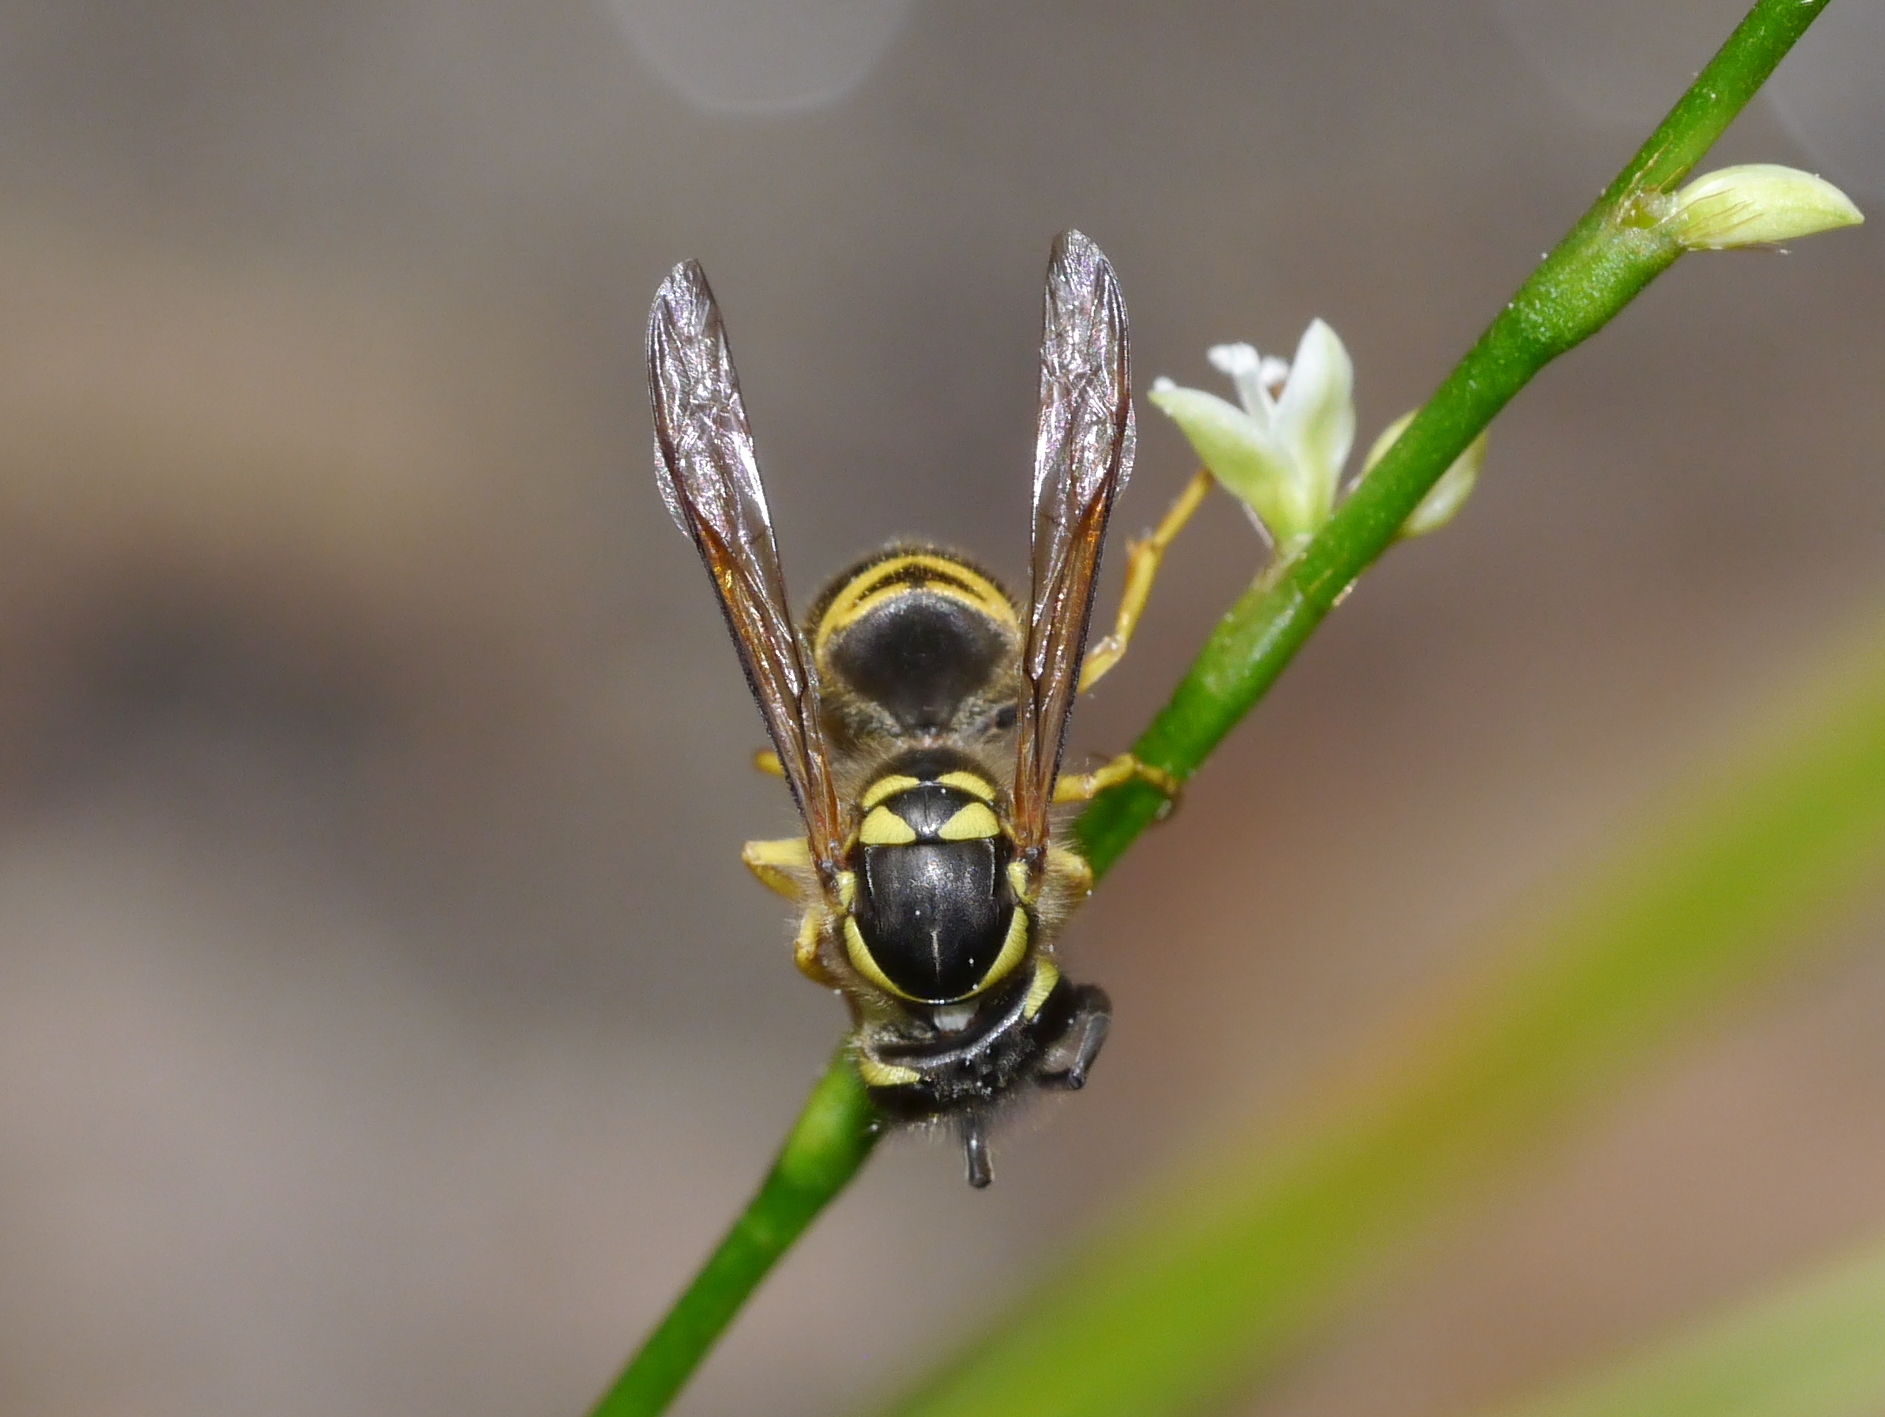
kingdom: Animalia
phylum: Arthropoda
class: Insecta
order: Hymenoptera
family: Vespidae
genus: Vespula
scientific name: Vespula maculifrons
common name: Eastern yellowjacket
